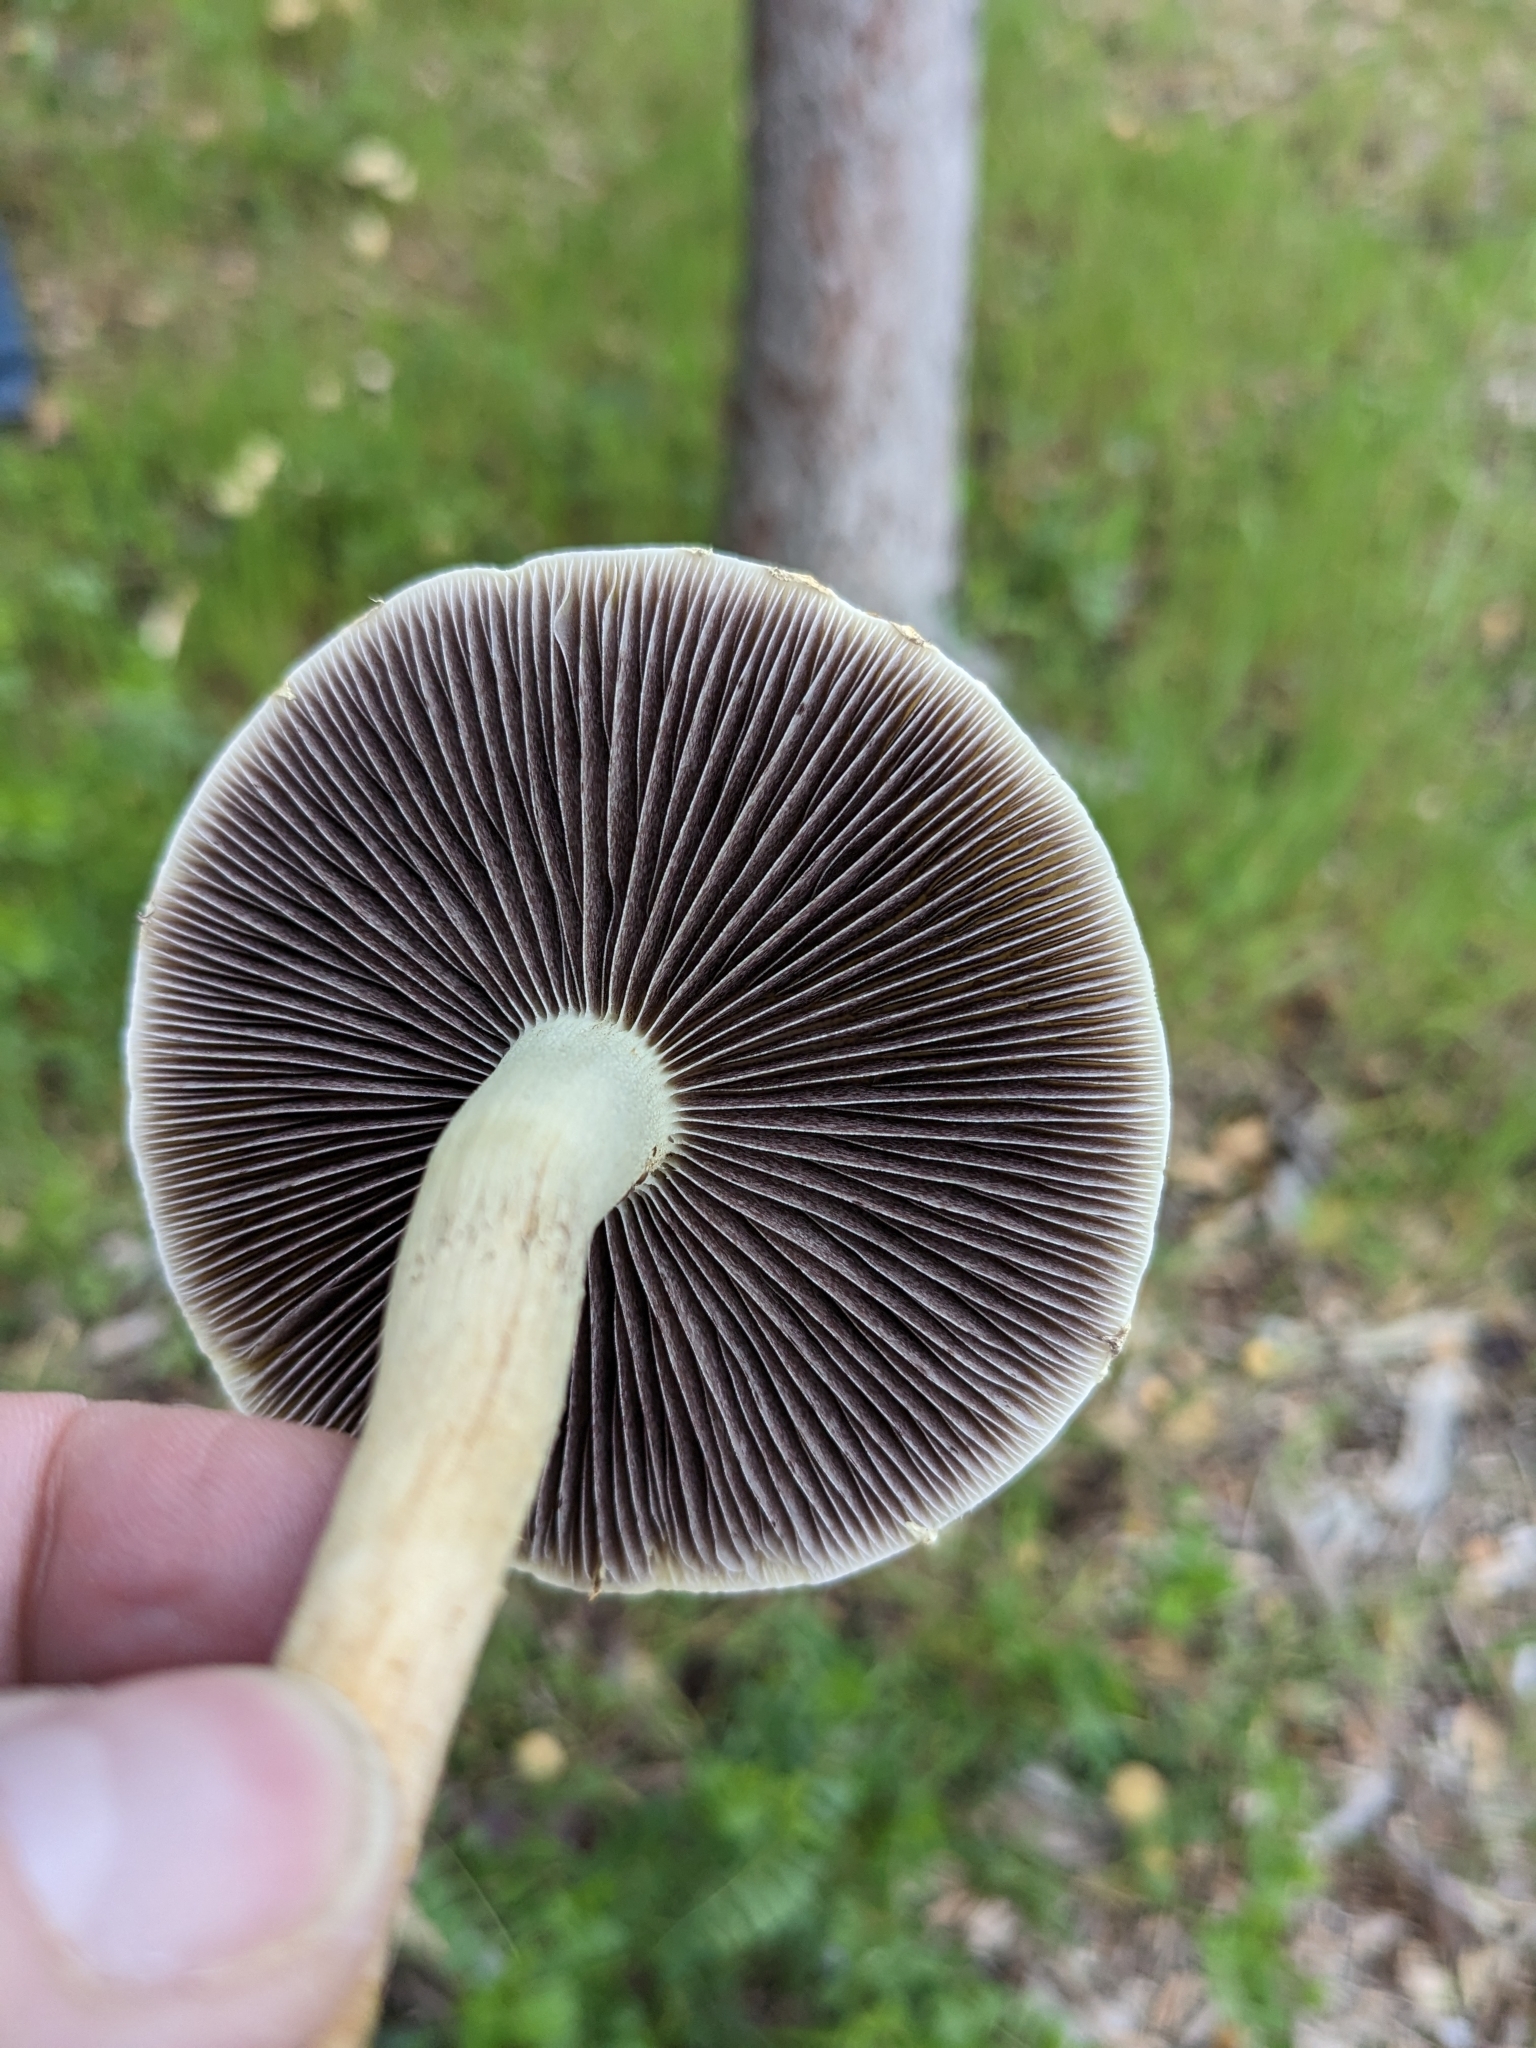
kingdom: Fungi
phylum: Basidiomycota
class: Agaricomycetes
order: Agaricales
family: Strophariaceae
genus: Leratiomyces
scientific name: Leratiomyces percevalii
